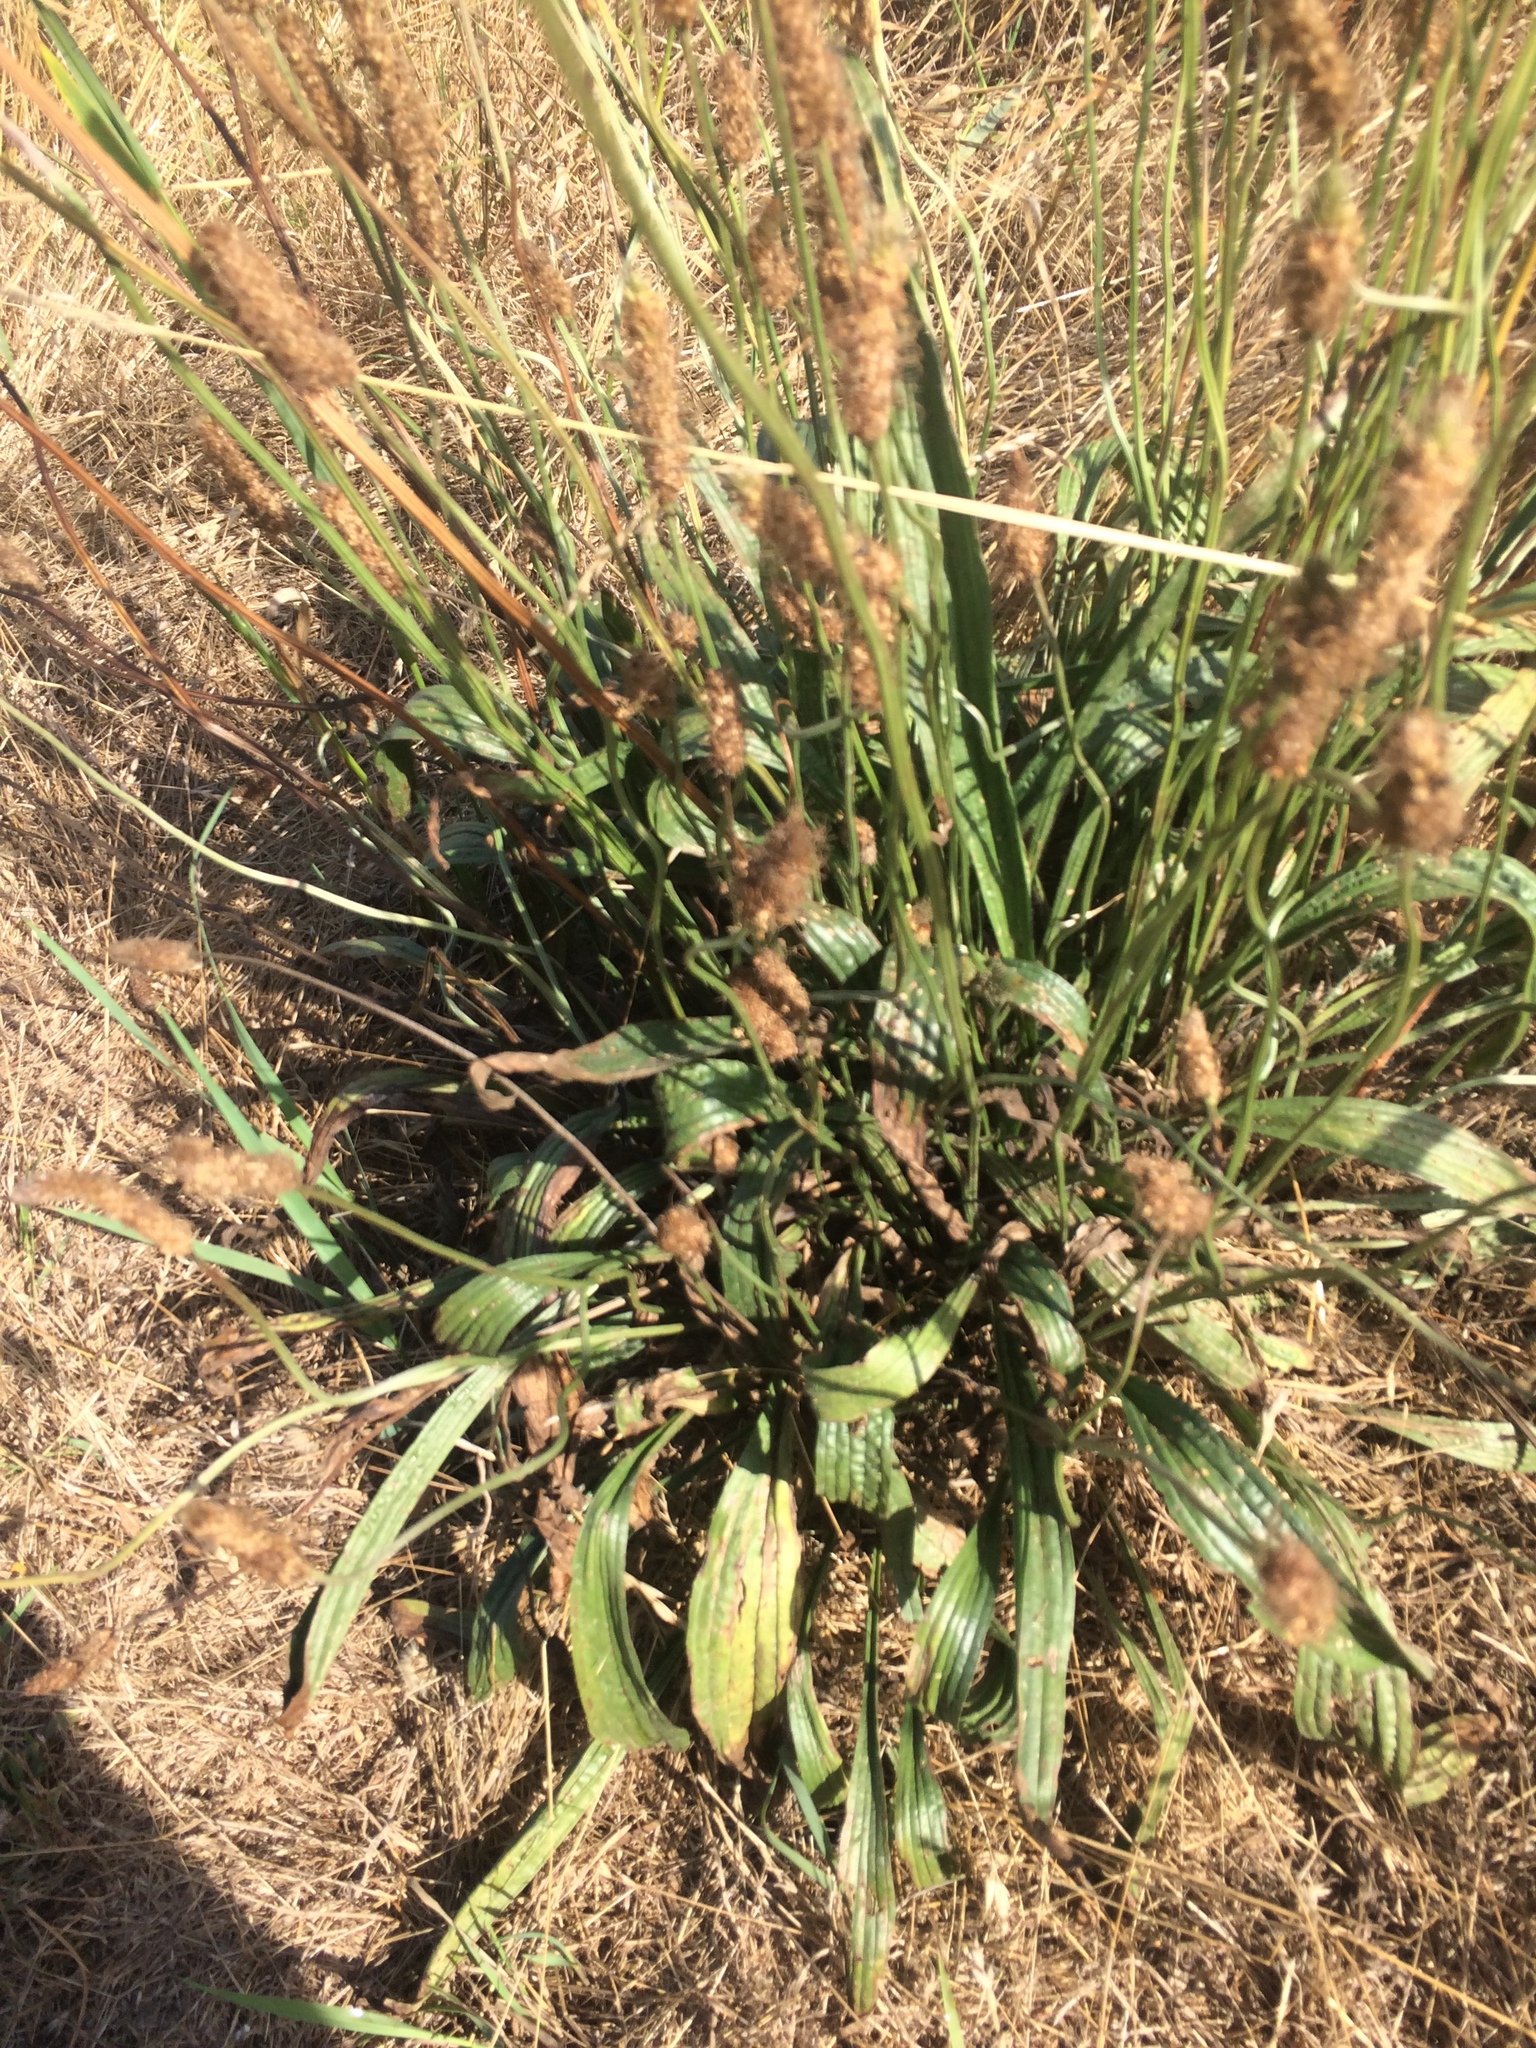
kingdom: Plantae
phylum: Tracheophyta
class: Magnoliopsida
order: Lamiales
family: Plantaginaceae
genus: Plantago
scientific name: Plantago lanceolata
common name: Ribwort plantain
